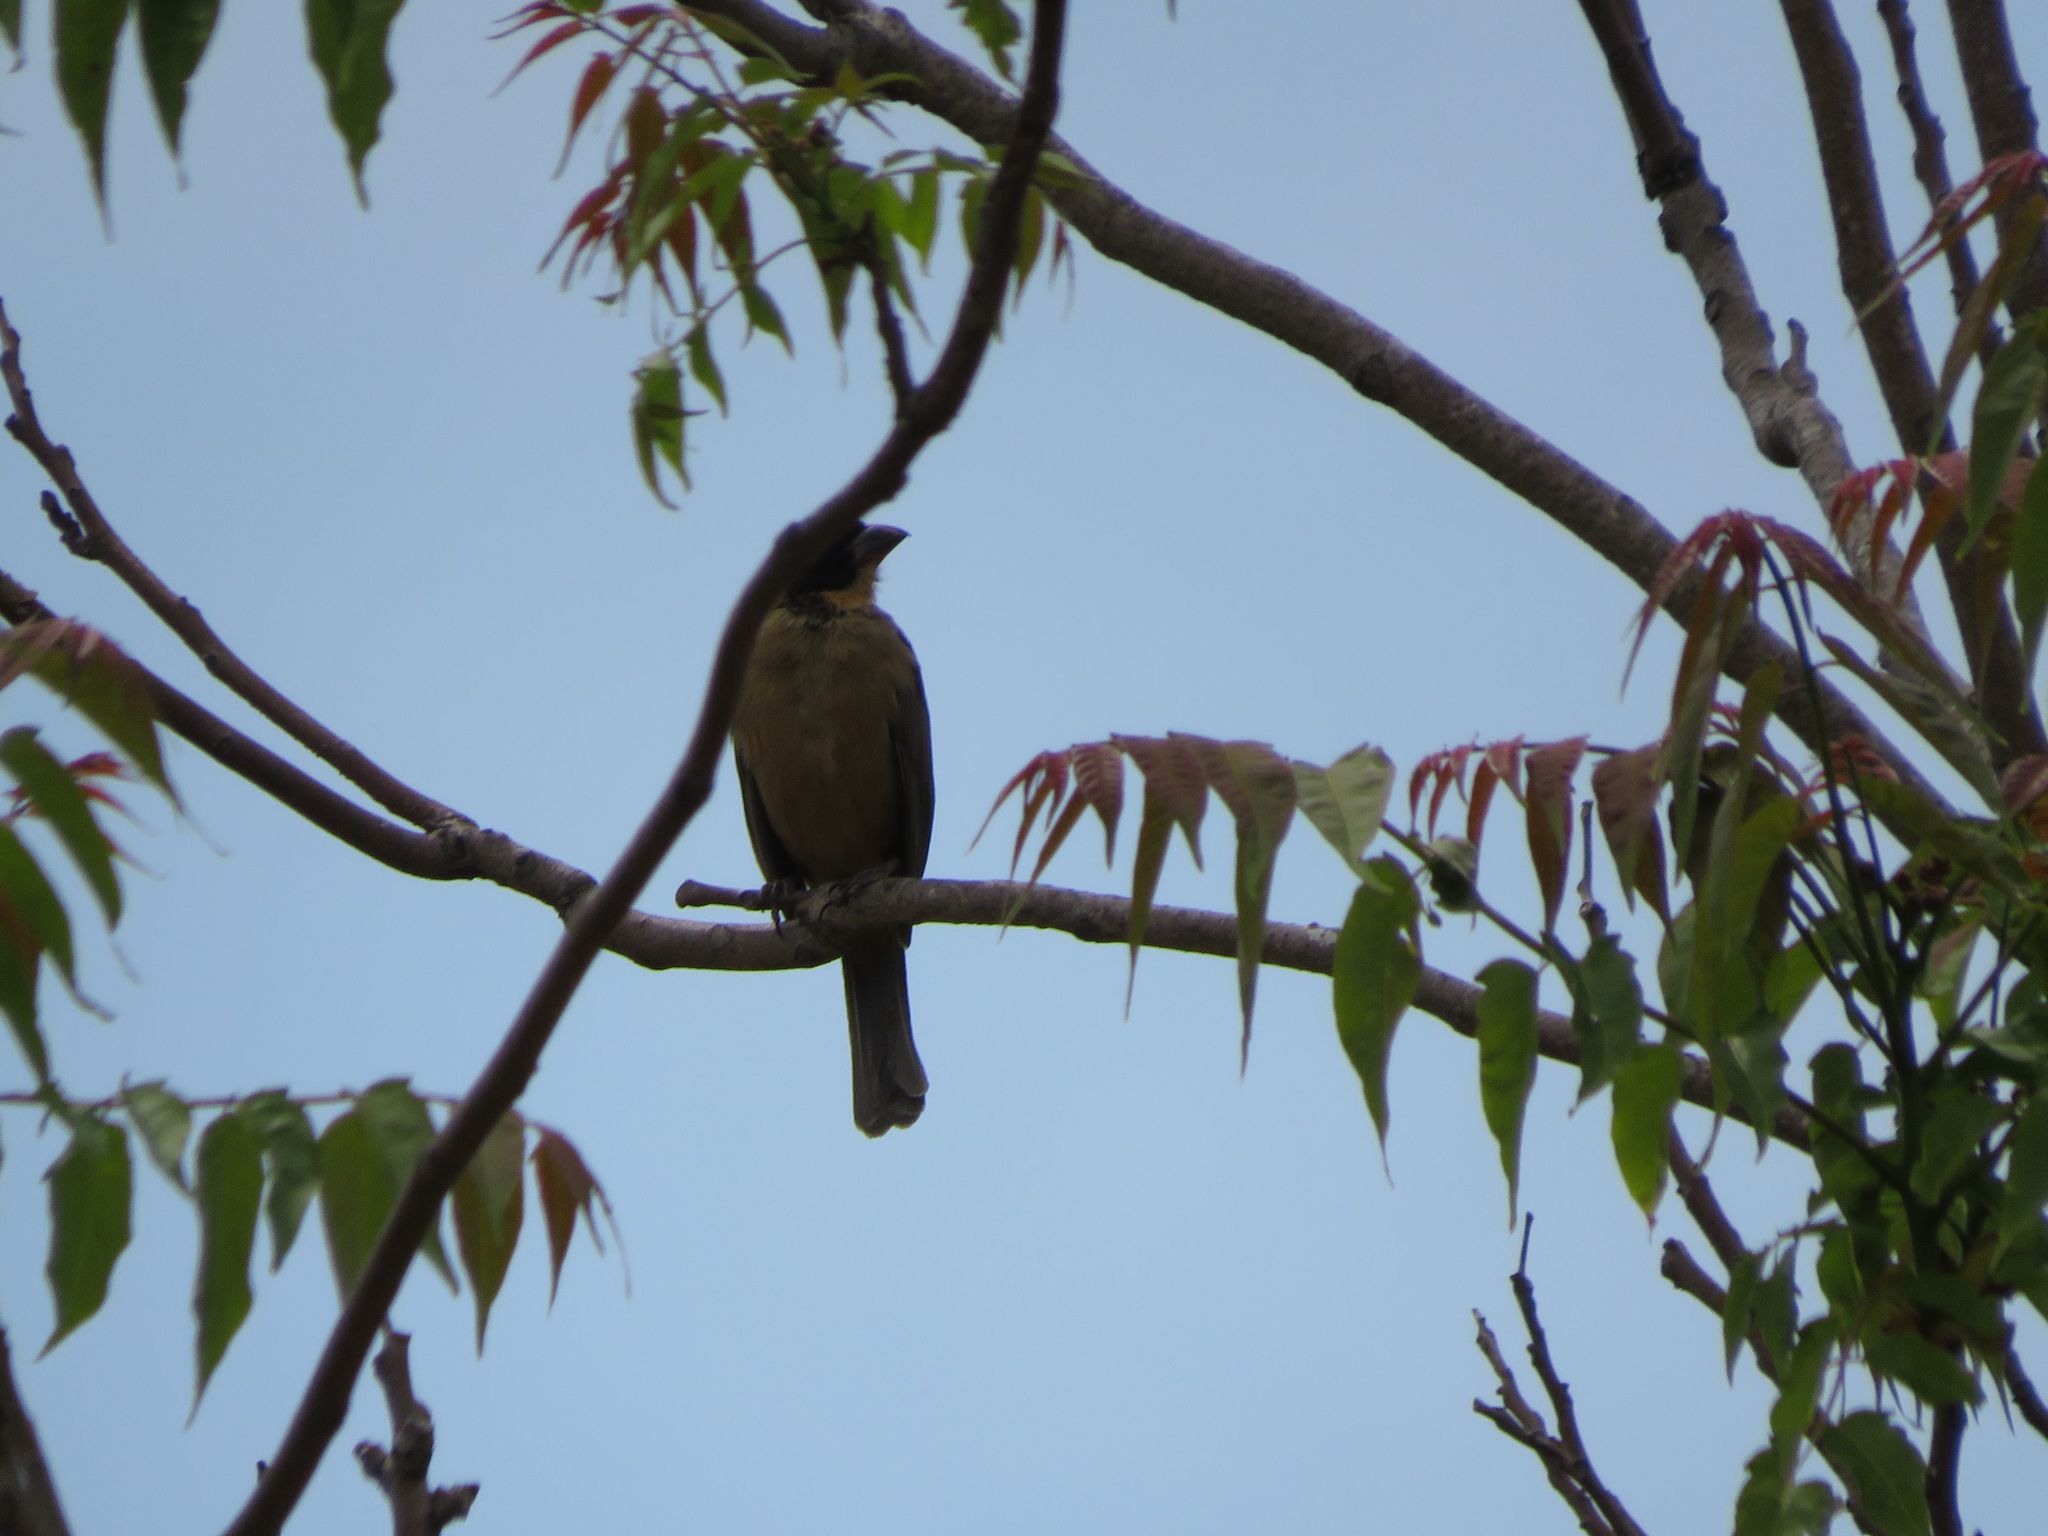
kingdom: Animalia
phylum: Chordata
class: Aves
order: Passeriformes
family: Thraupidae
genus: Saltator
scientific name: Saltator aurantiirostris
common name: Golden-billed saltator
